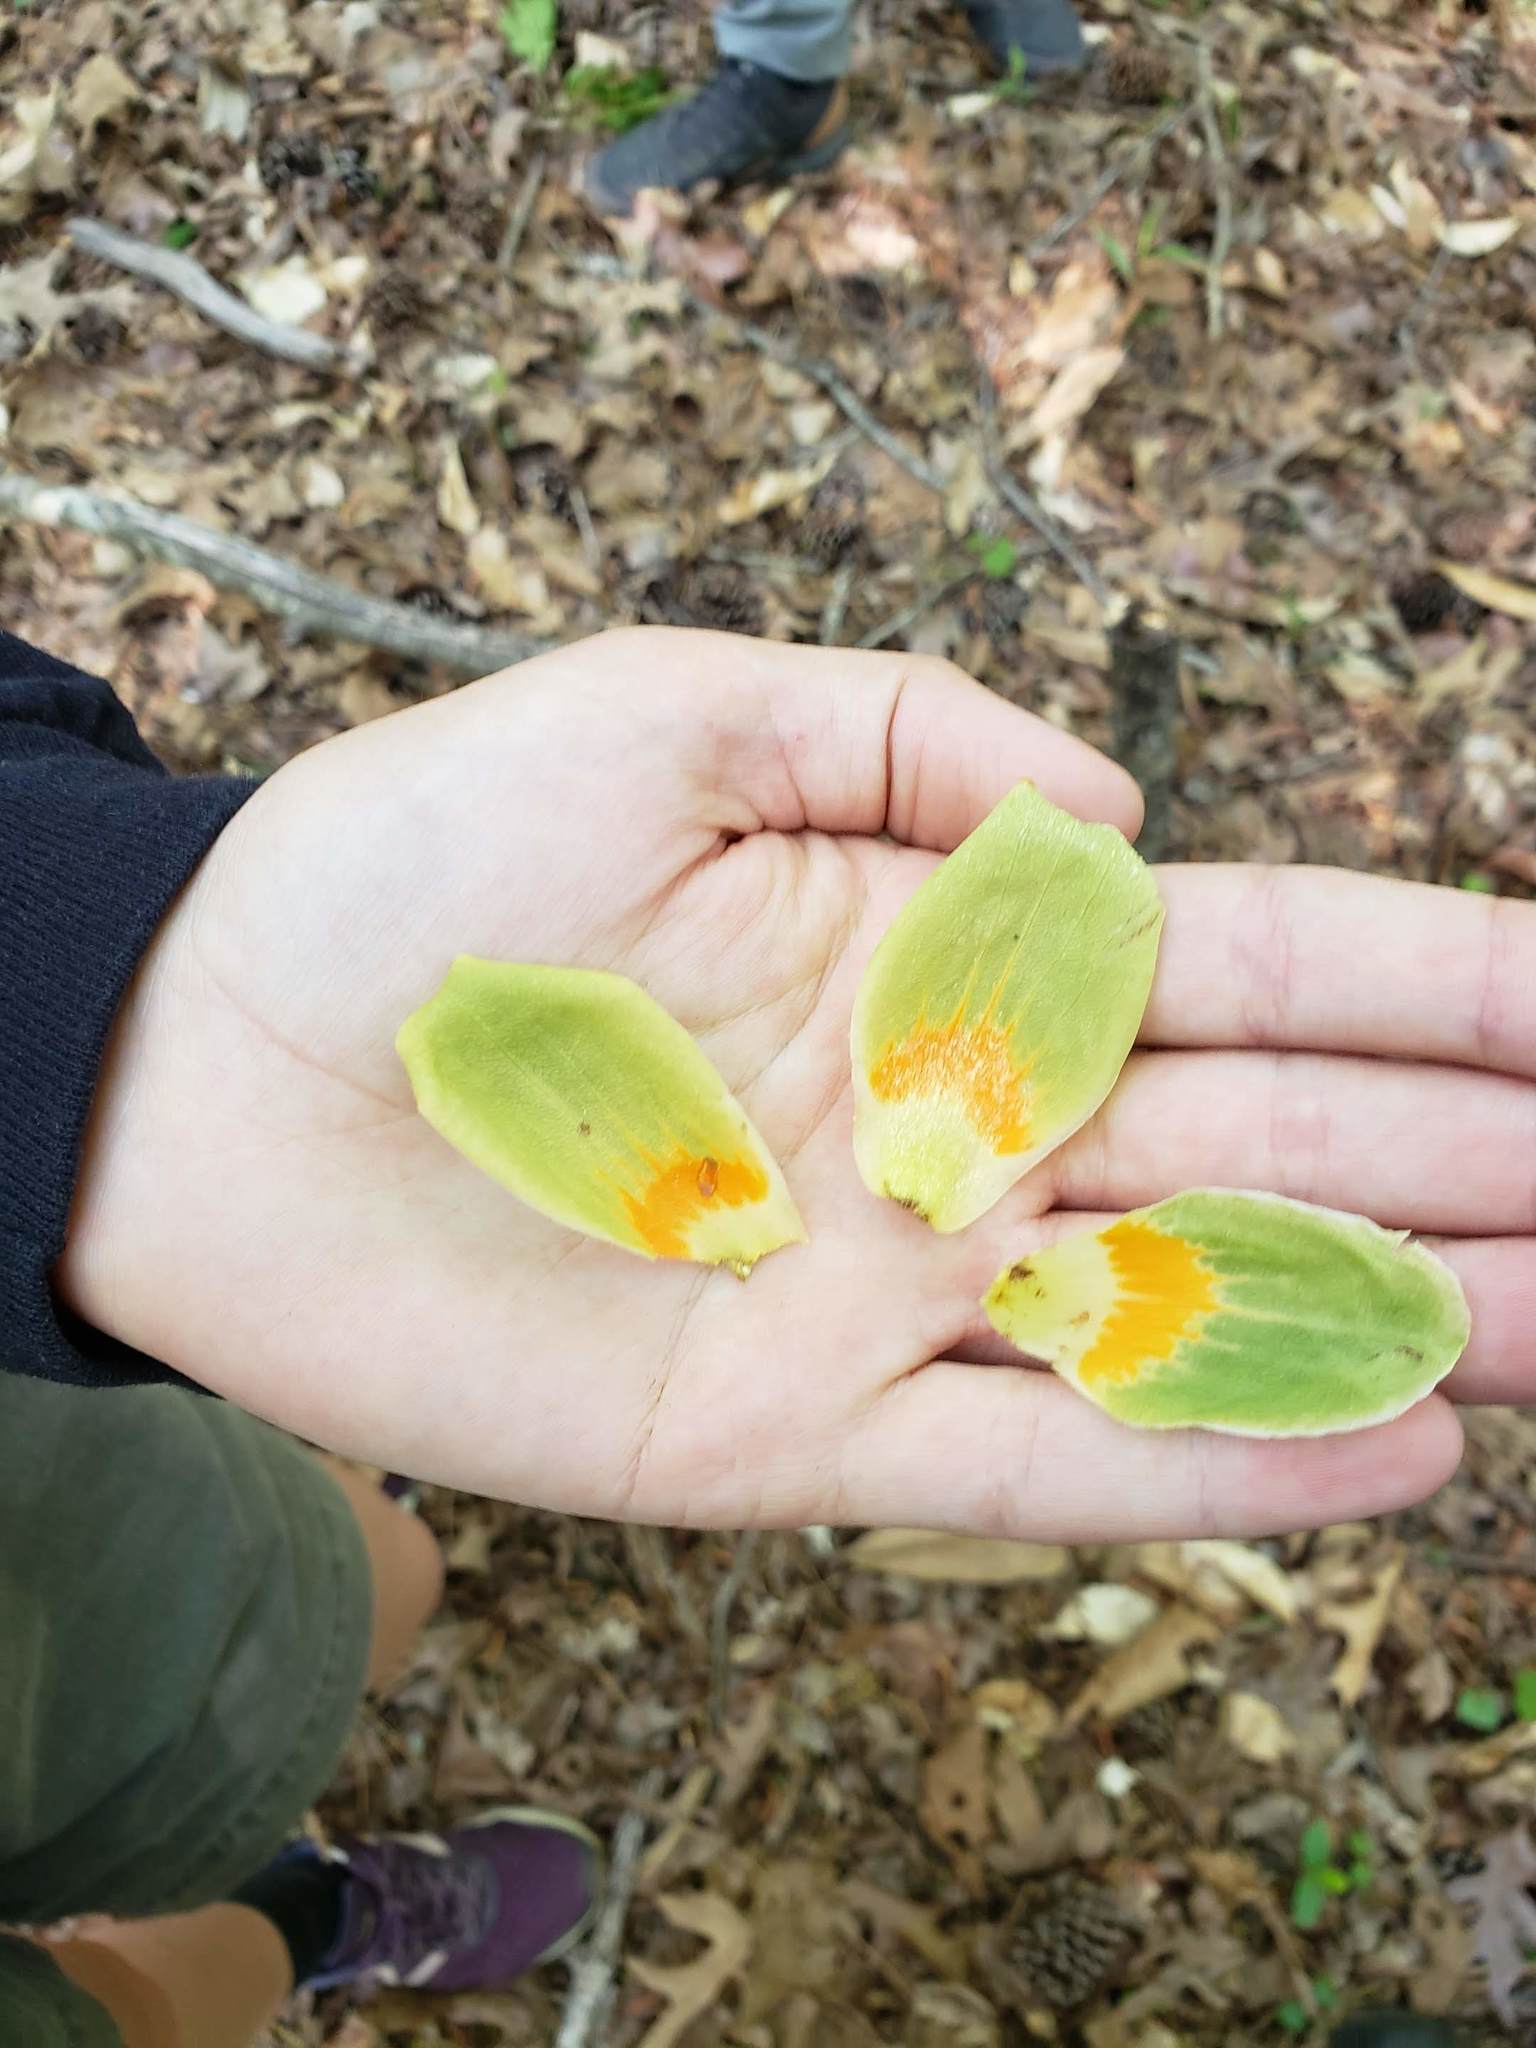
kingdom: Plantae
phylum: Tracheophyta
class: Magnoliopsida
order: Magnoliales
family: Magnoliaceae
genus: Liriodendron
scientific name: Liriodendron tulipifera
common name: Tulip tree
